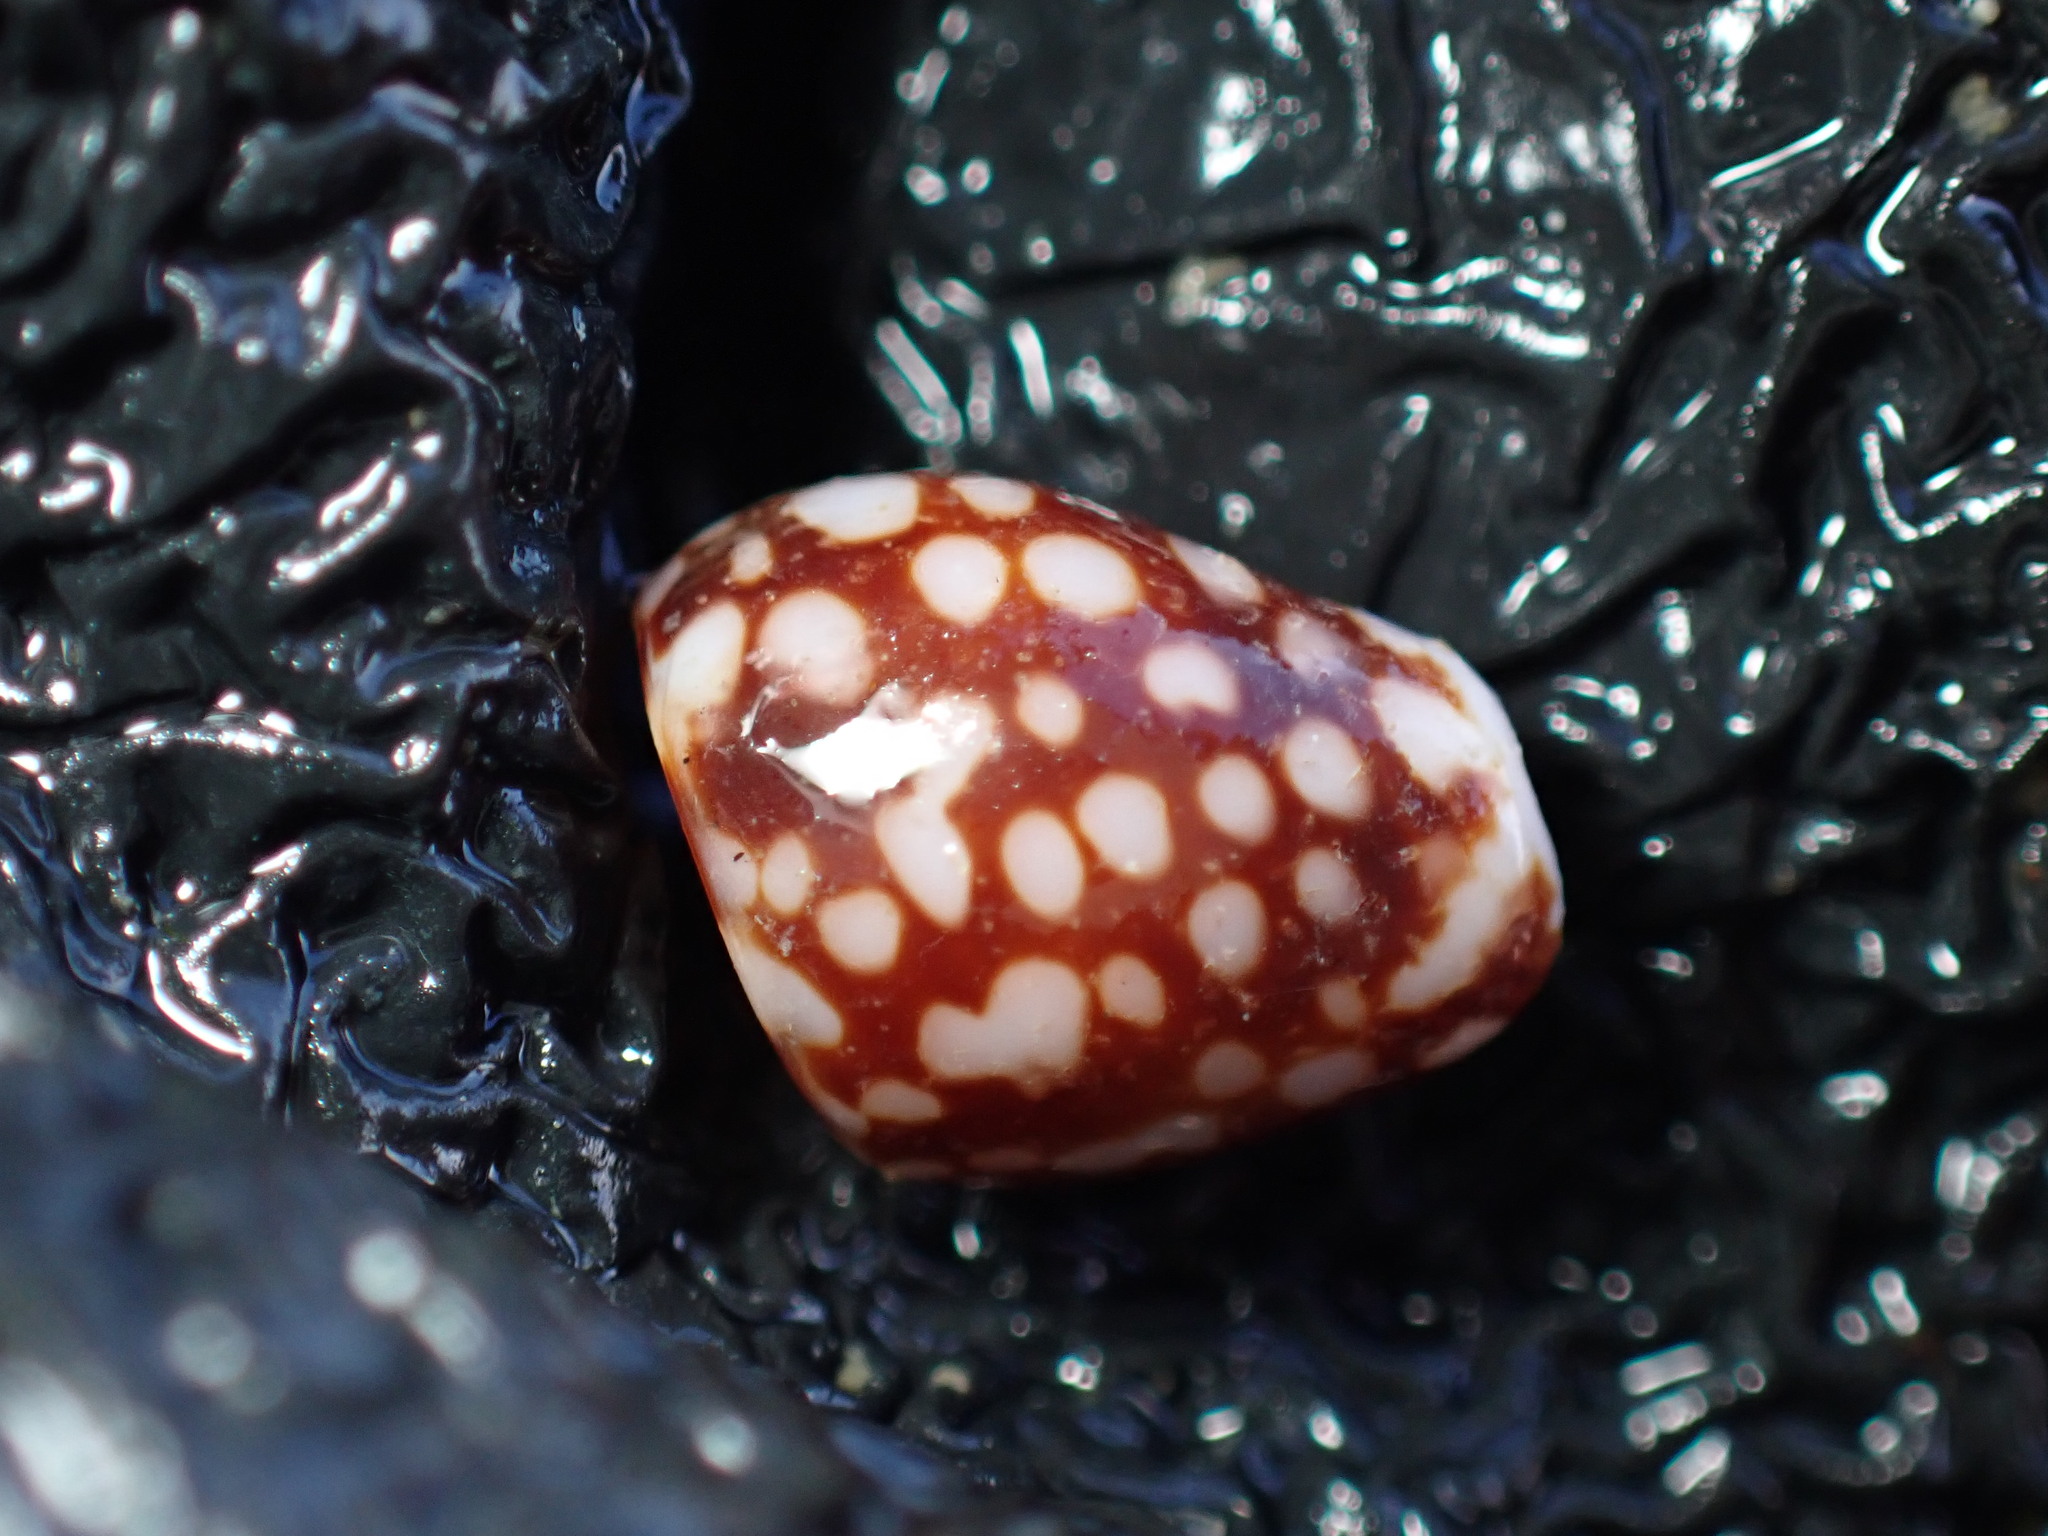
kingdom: Animalia
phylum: Mollusca
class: Gastropoda
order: Neogastropoda
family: Columbellidae
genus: Pardalinops de
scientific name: Pardalinops de Pardalinops testudinaria
